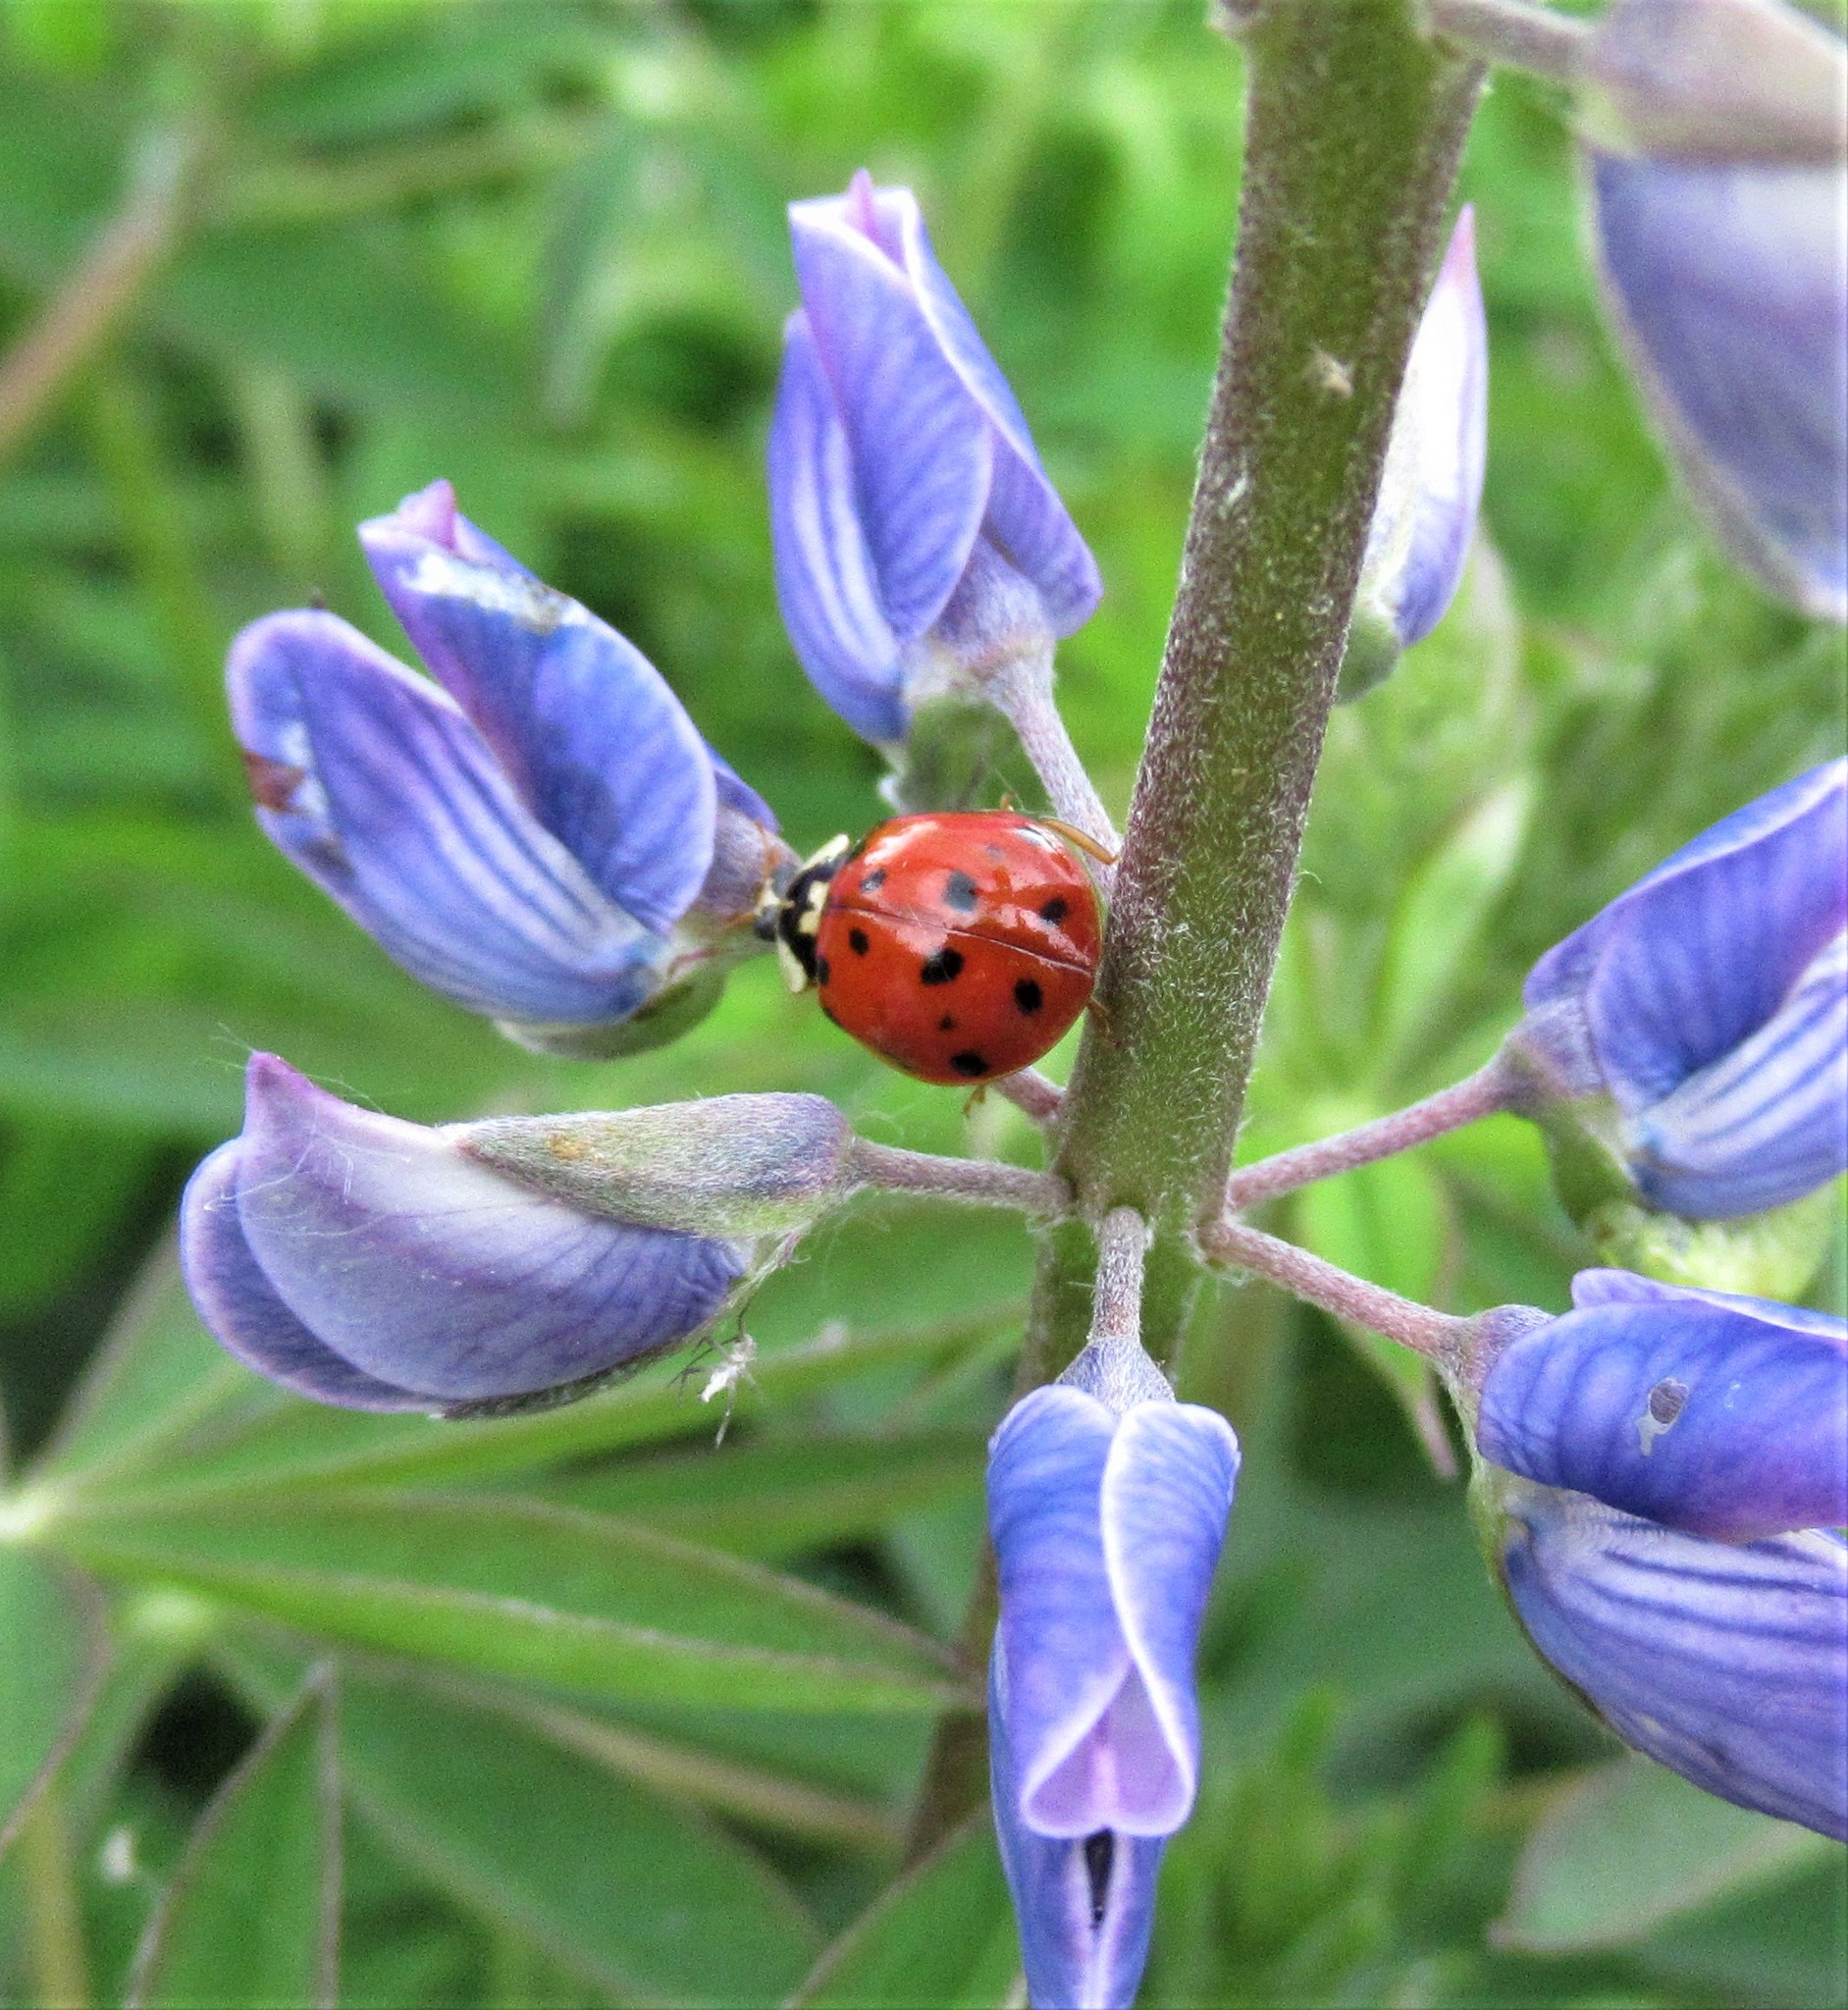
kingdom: Animalia
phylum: Arthropoda
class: Insecta
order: Coleoptera
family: Coccinellidae
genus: Harmonia
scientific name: Harmonia axyridis
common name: Harlequin ladybird
